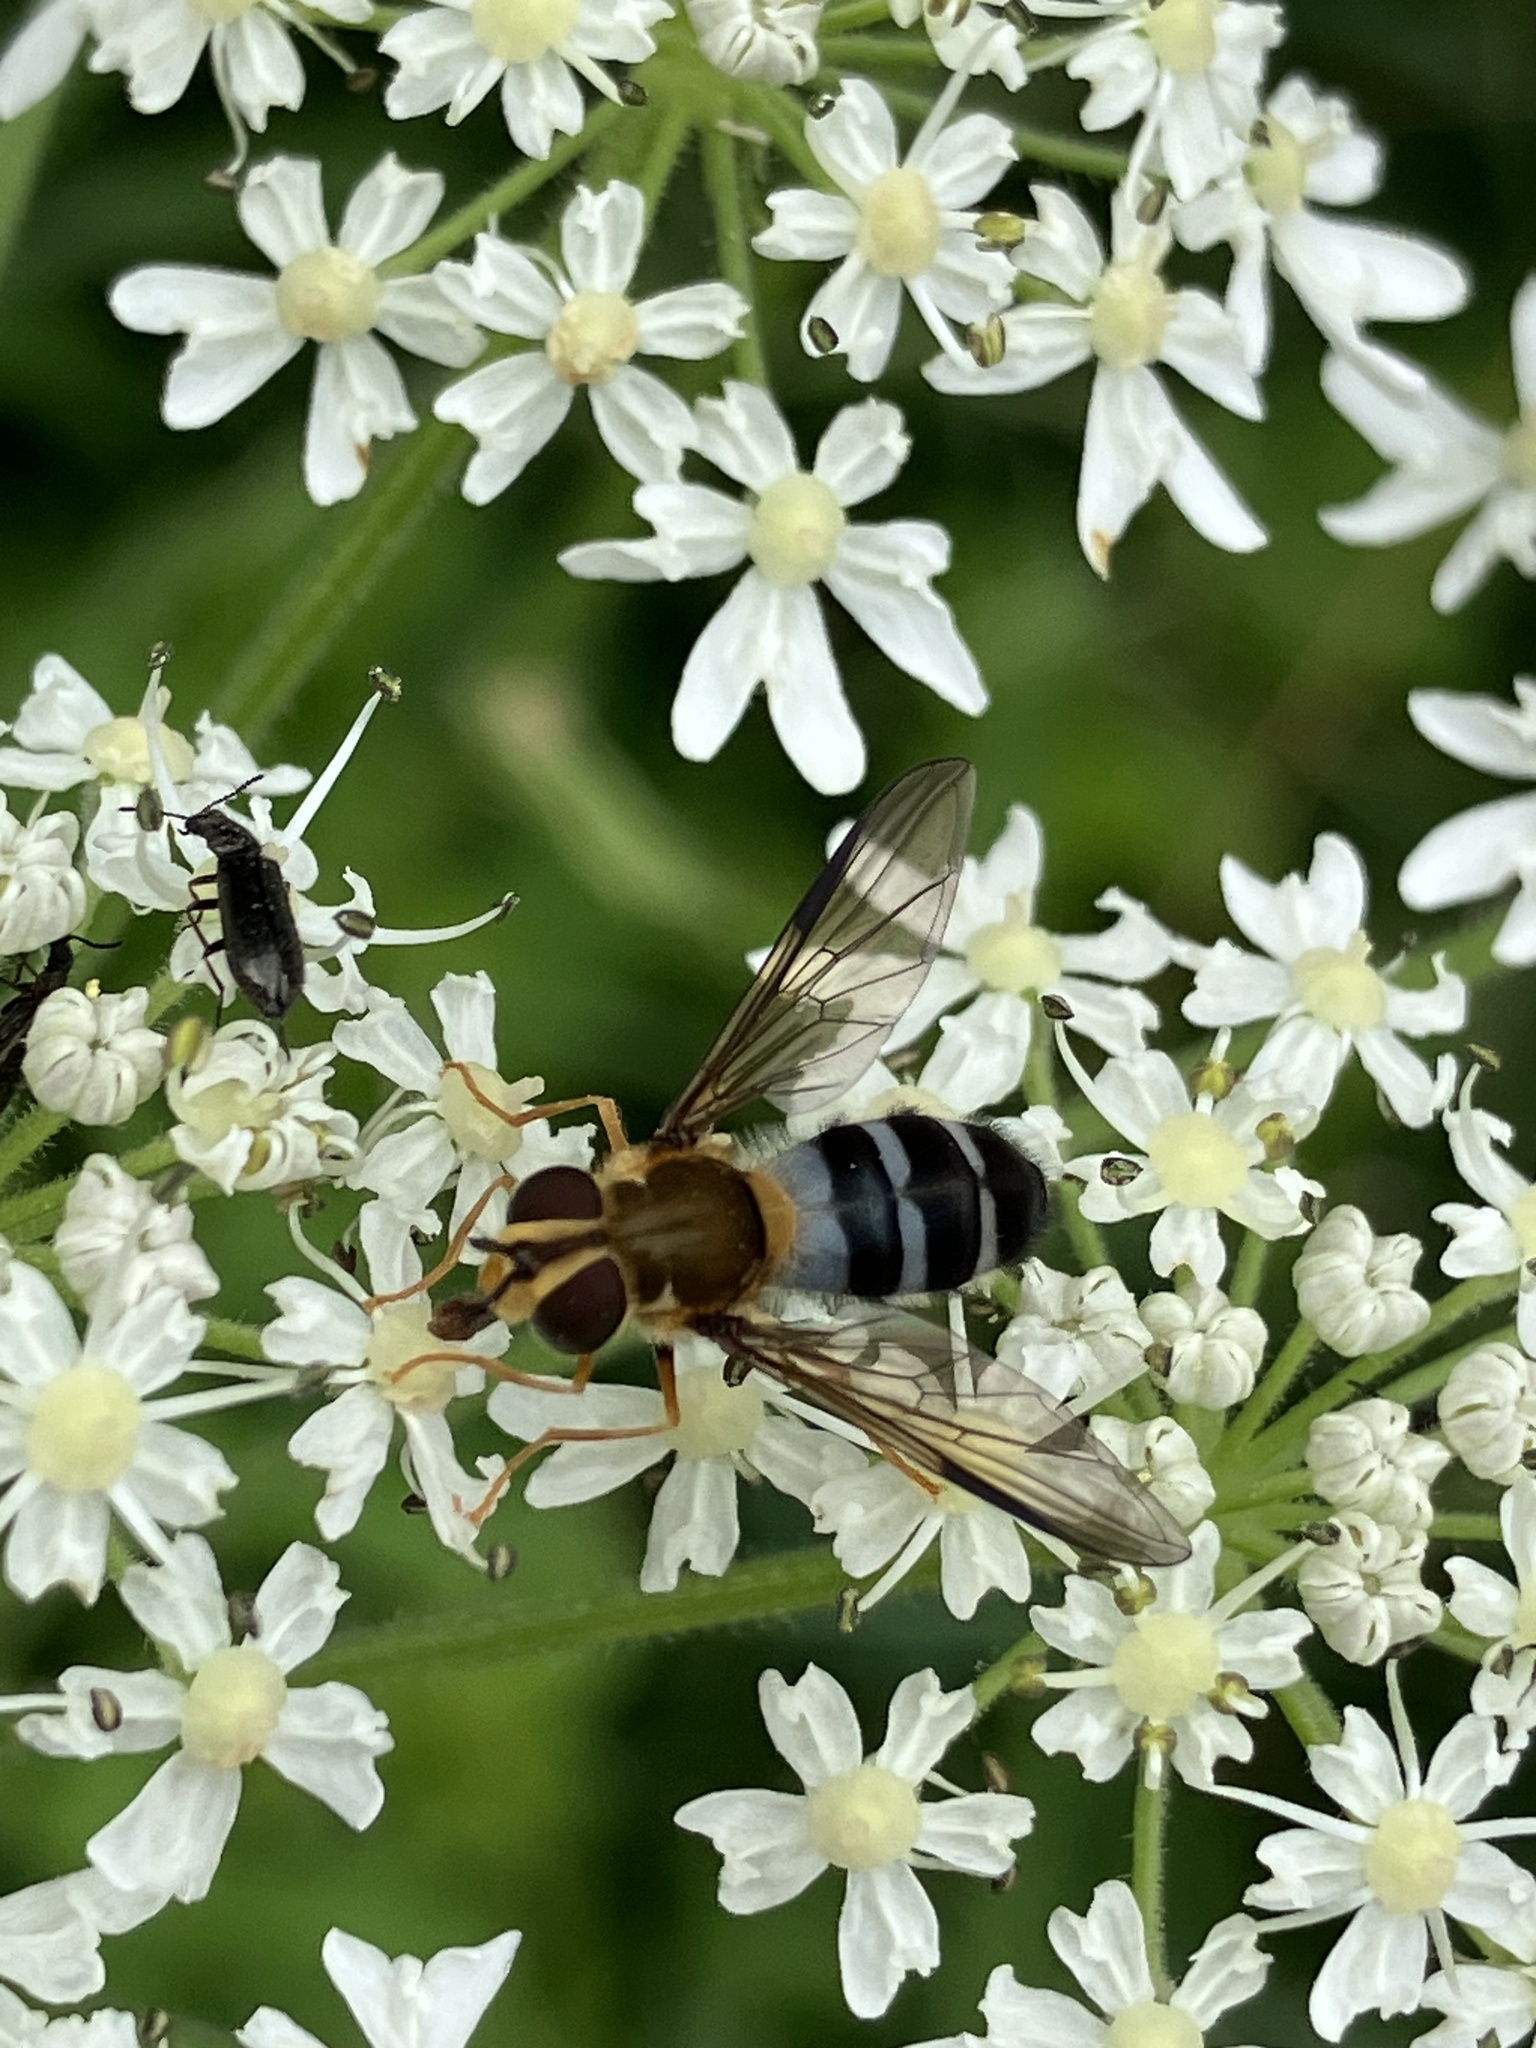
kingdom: Animalia
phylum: Arthropoda
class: Insecta
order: Diptera
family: Syrphidae
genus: Leucozona
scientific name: Leucozona glaucia
